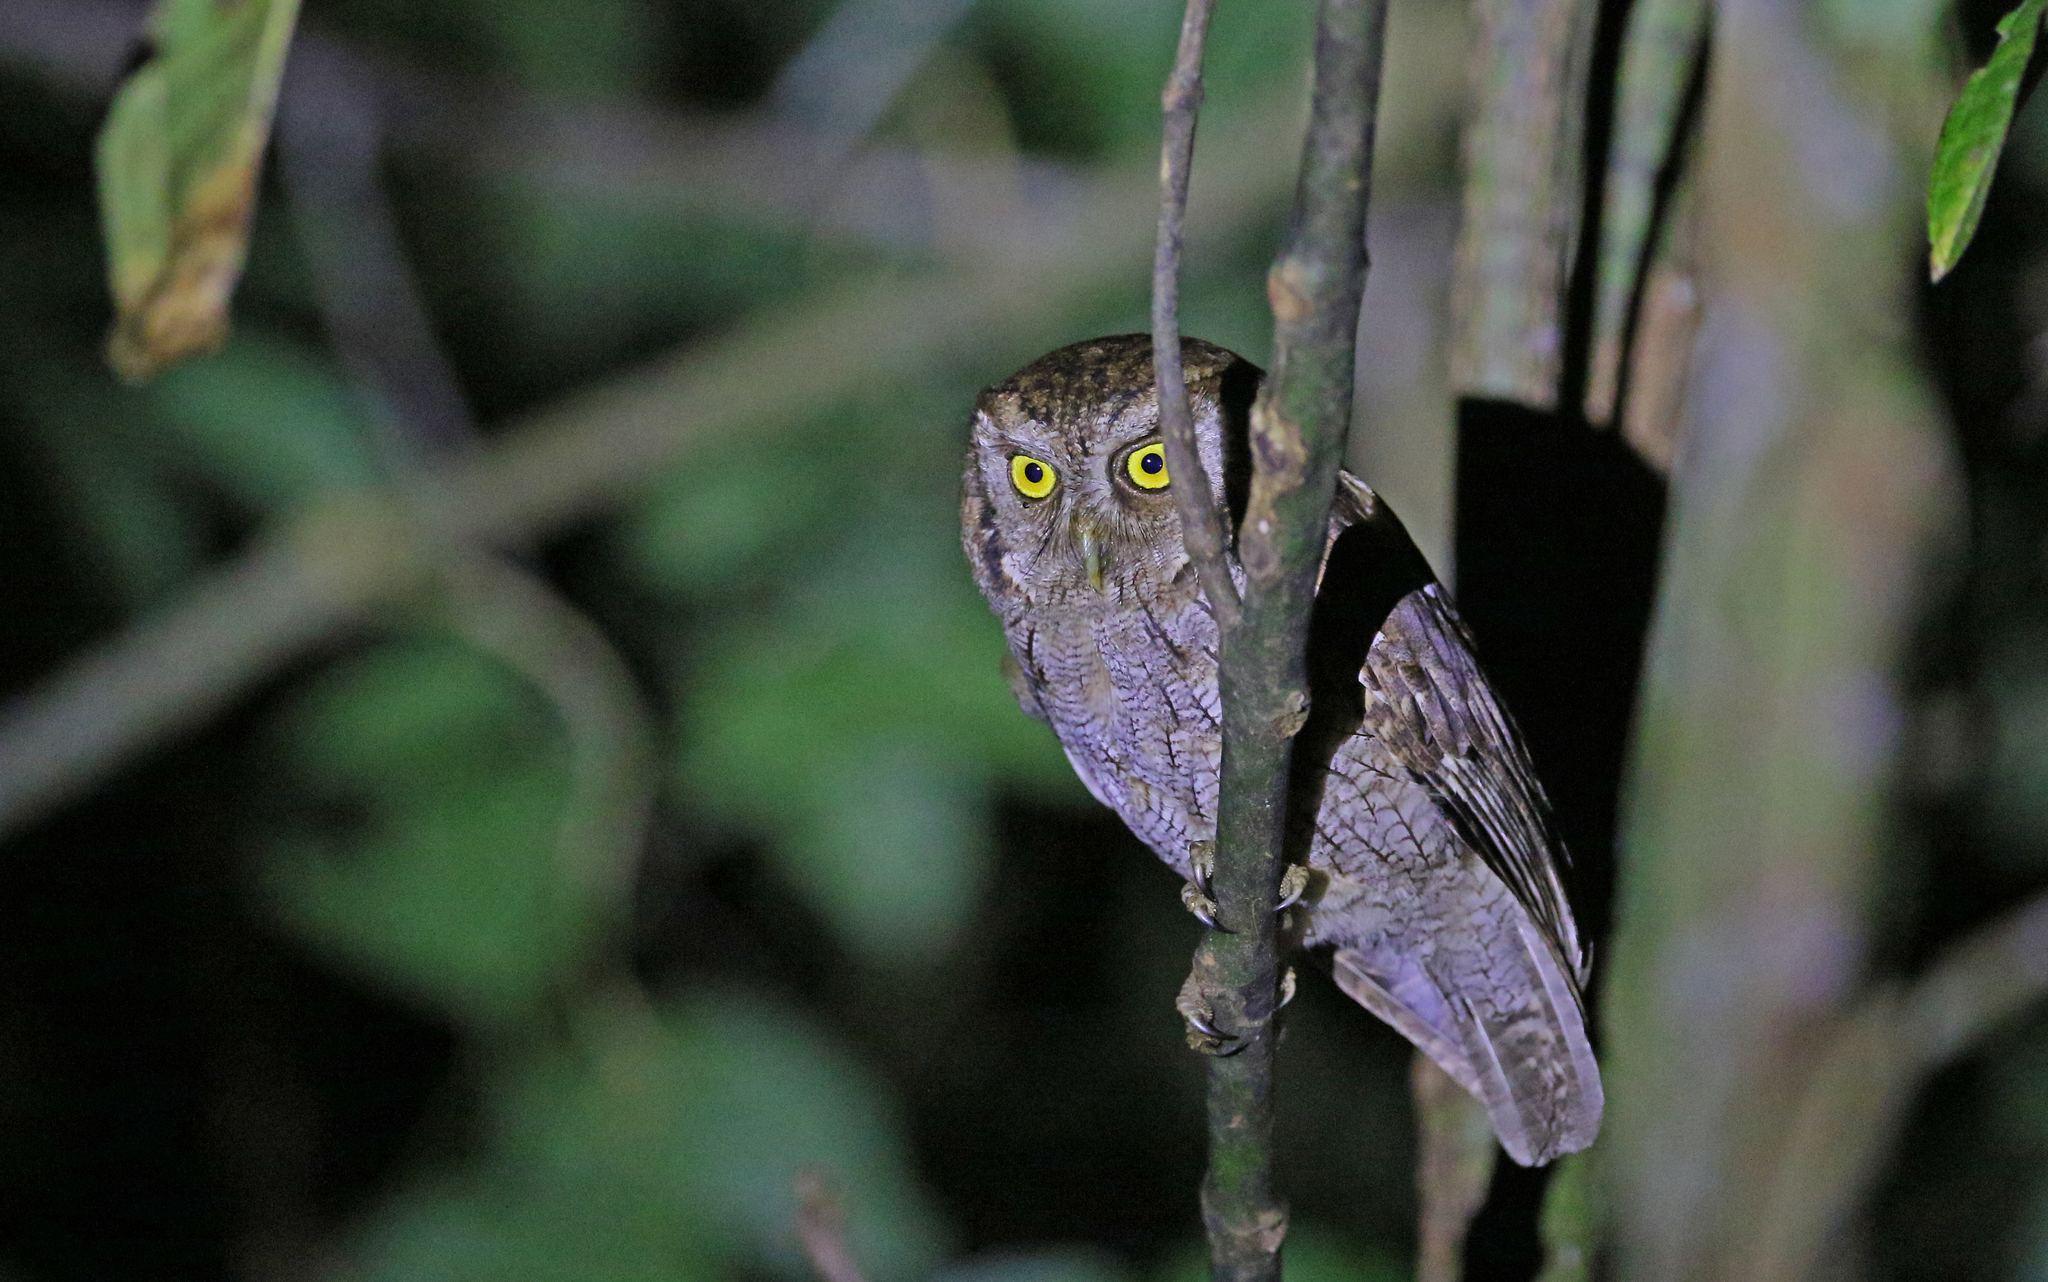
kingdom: Animalia
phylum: Chordata
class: Aves
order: Strigiformes
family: Strigidae
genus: Megascops
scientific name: Megascops choliba
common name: Tropical screech-owl
